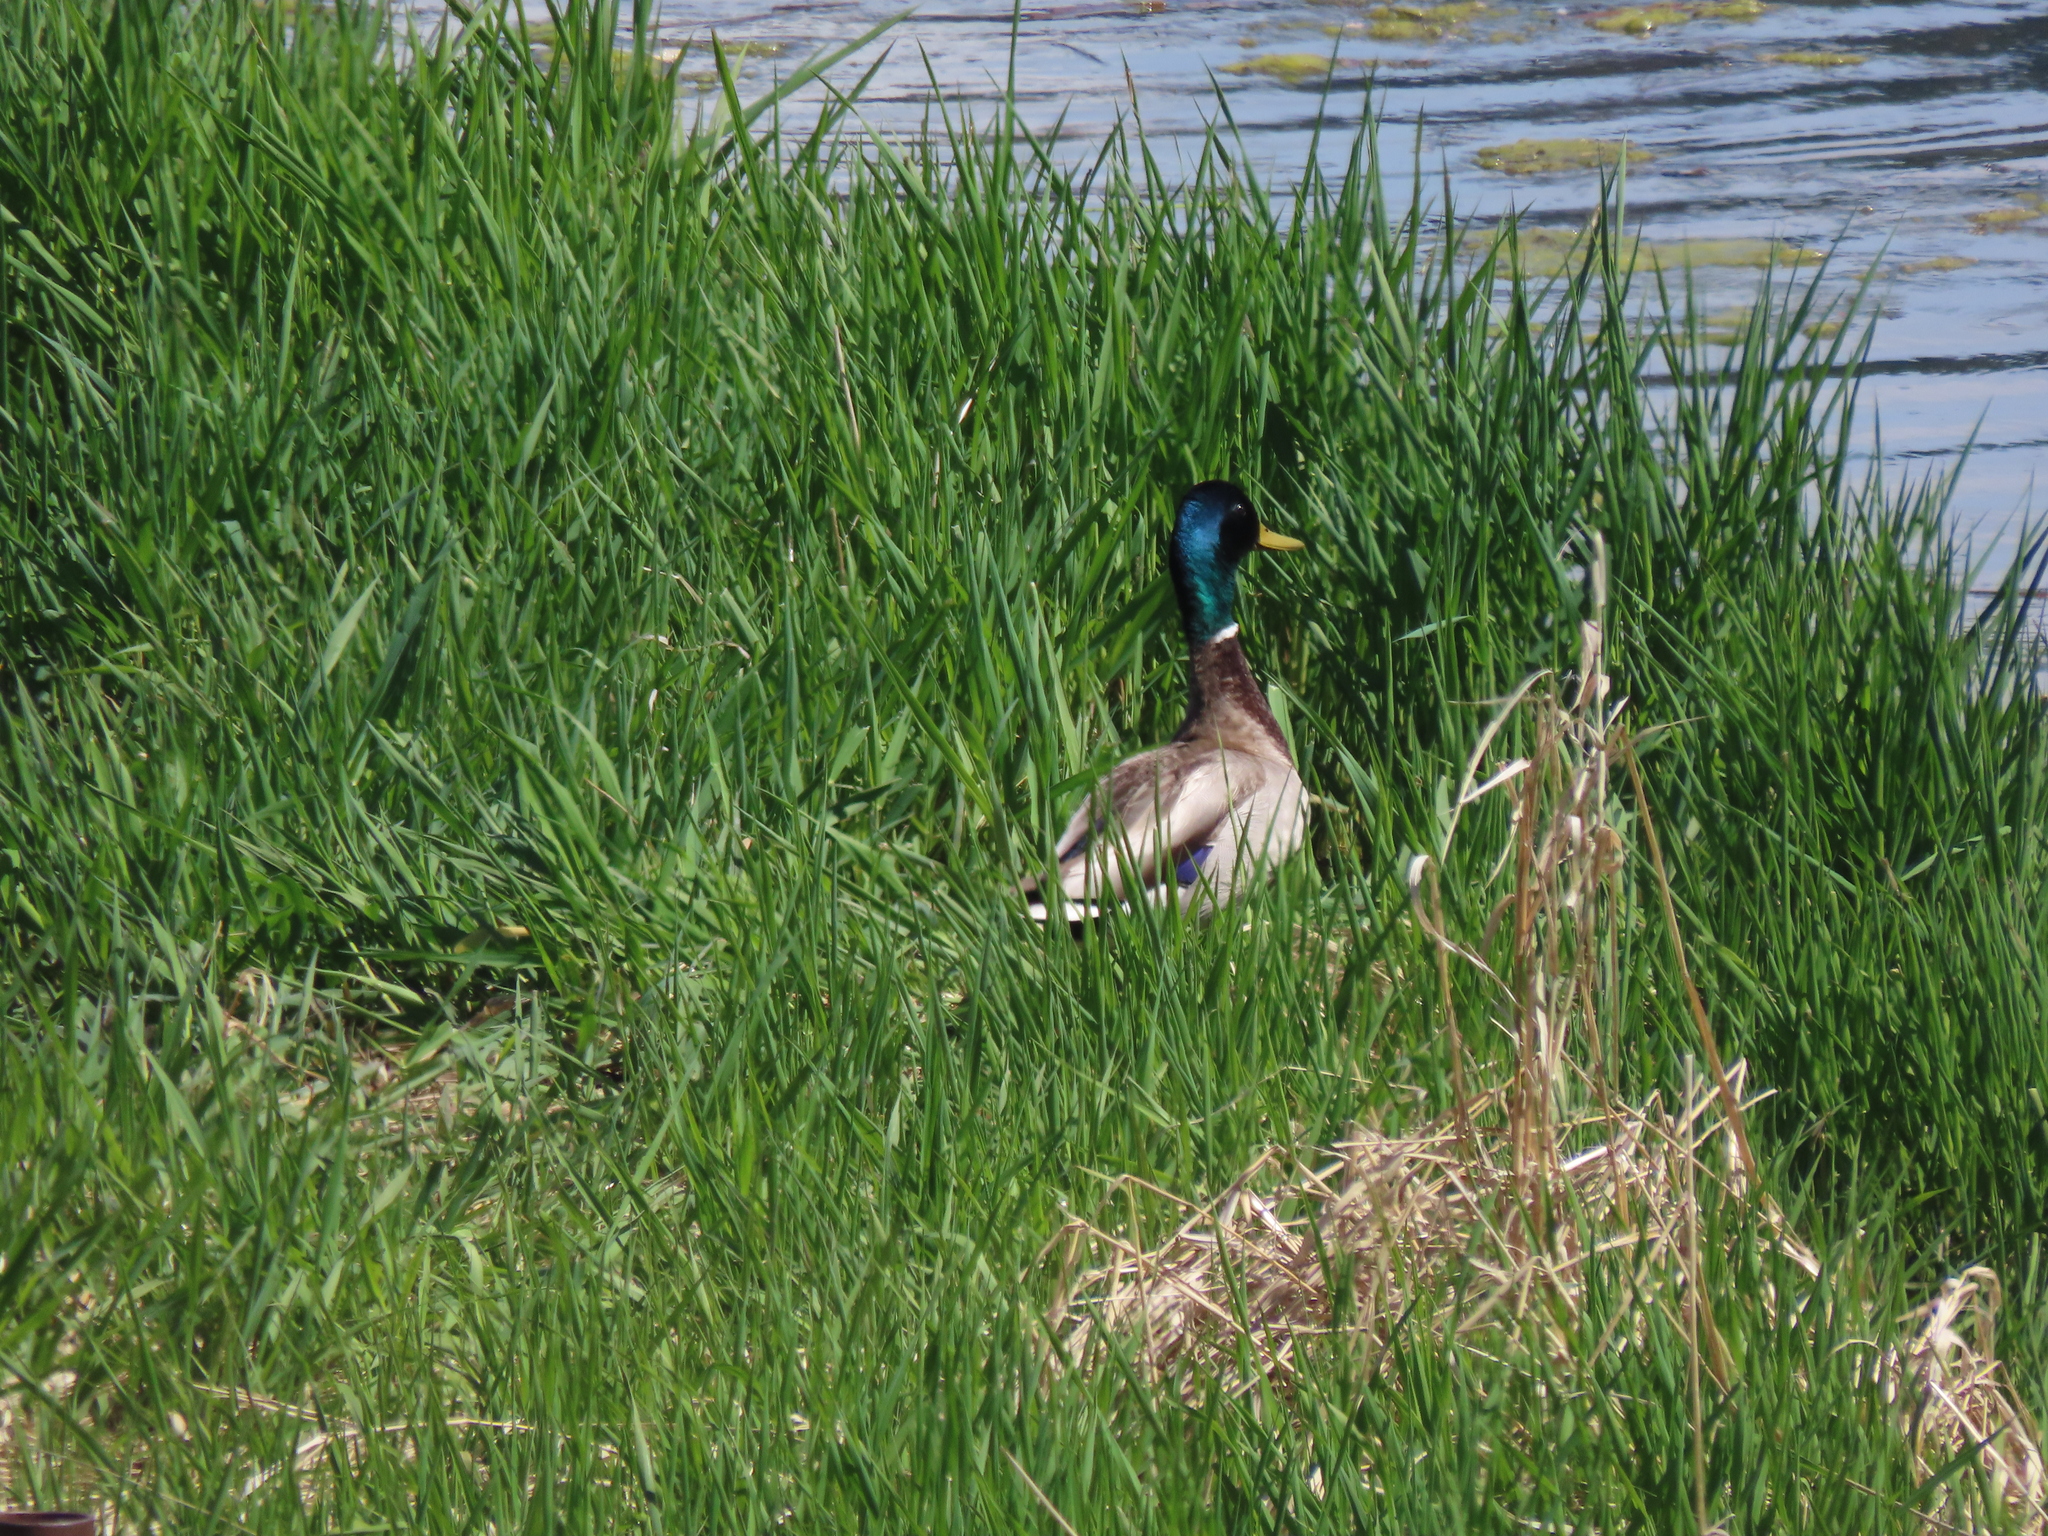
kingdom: Animalia
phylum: Chordata
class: Aves
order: Anseriformes
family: Anatidae
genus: Anas
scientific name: Anas platyrhynchos
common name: Mallard
